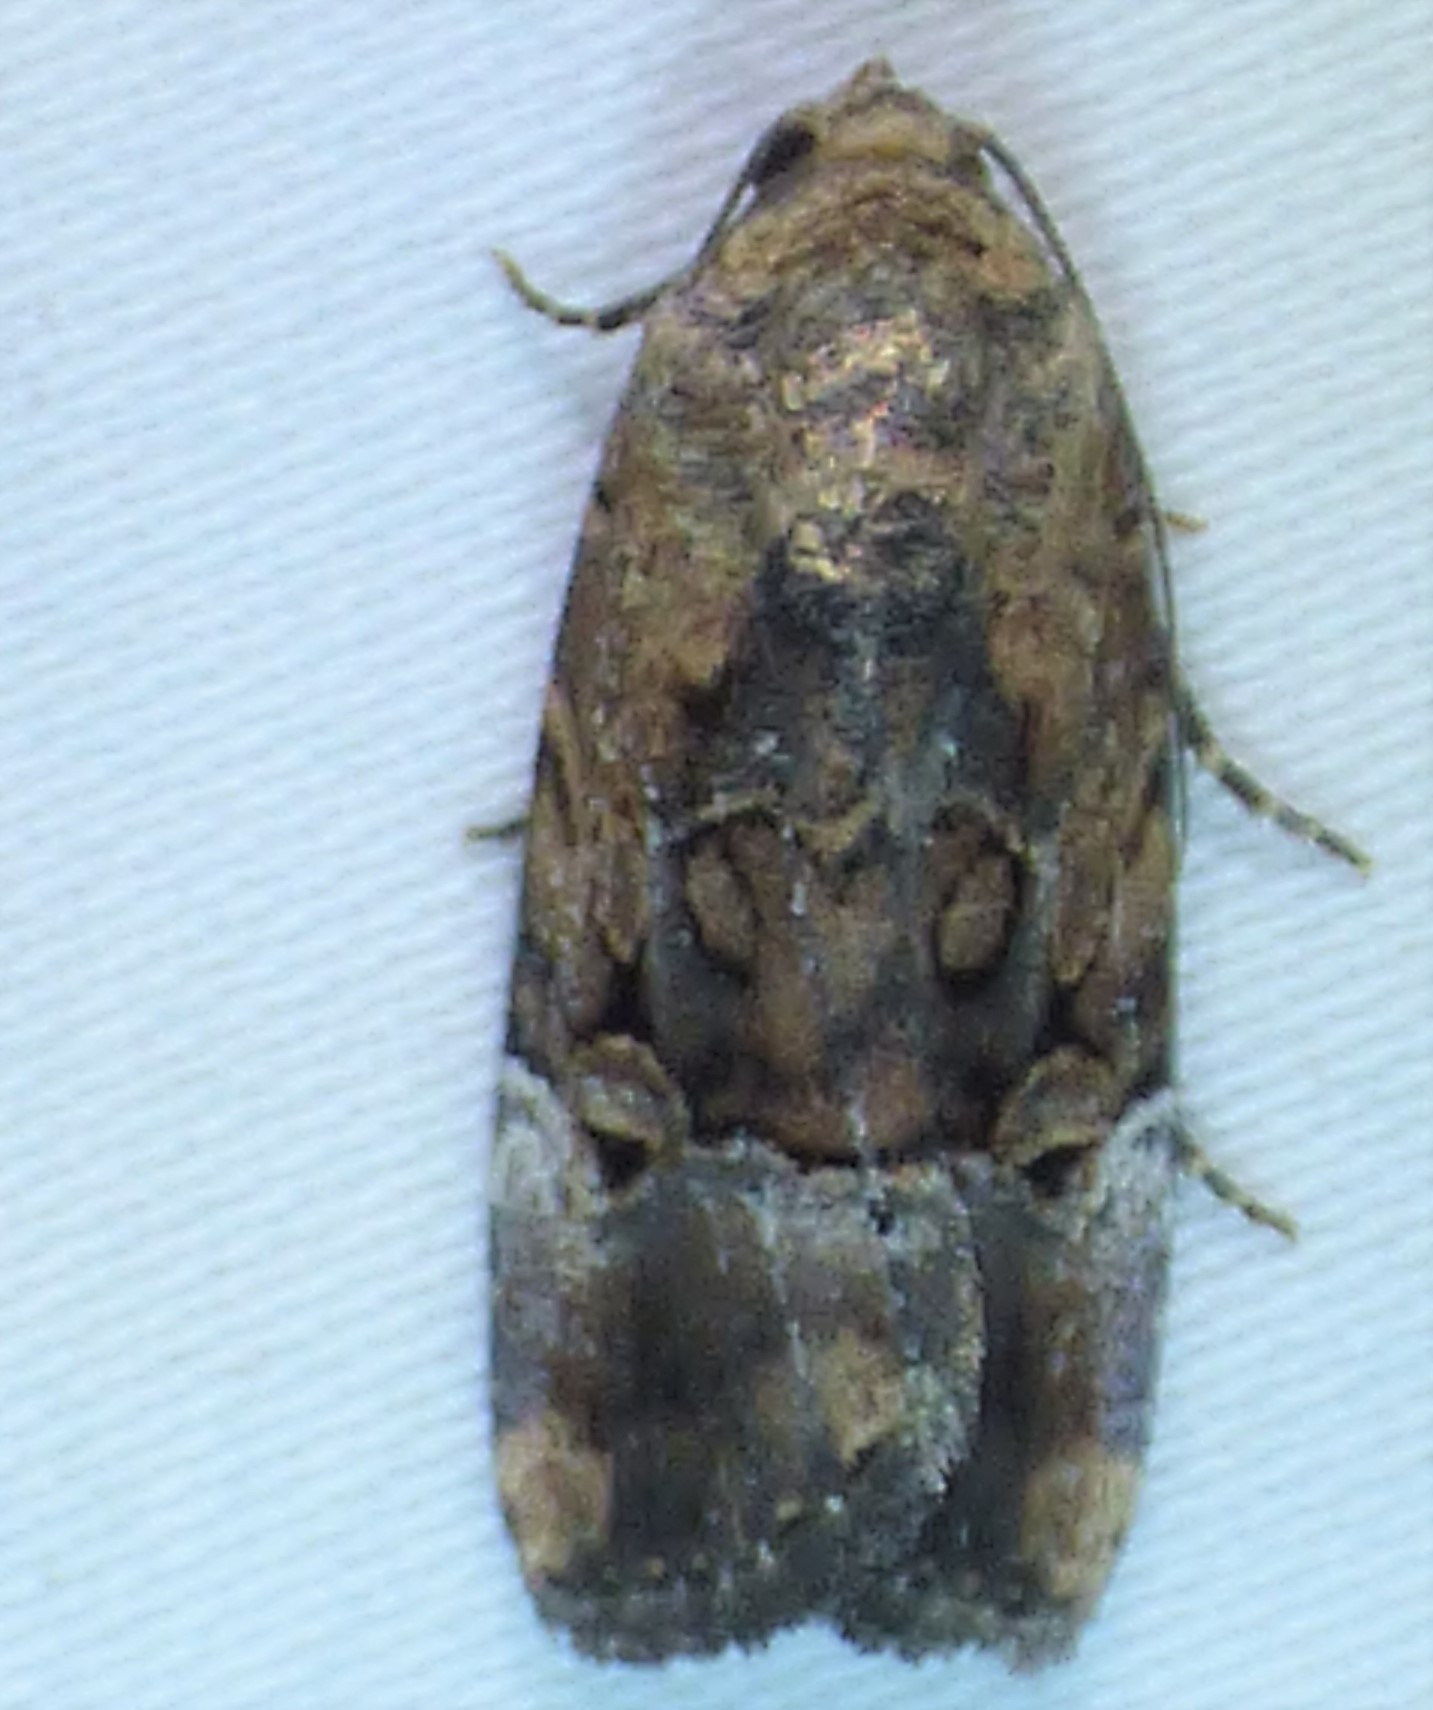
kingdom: Animalia
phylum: Arthropoda
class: Insecta
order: Lepidoptera
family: Noctuidae
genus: Elaphria
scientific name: Elaphria chalcedonia
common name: Chalcedony midget
